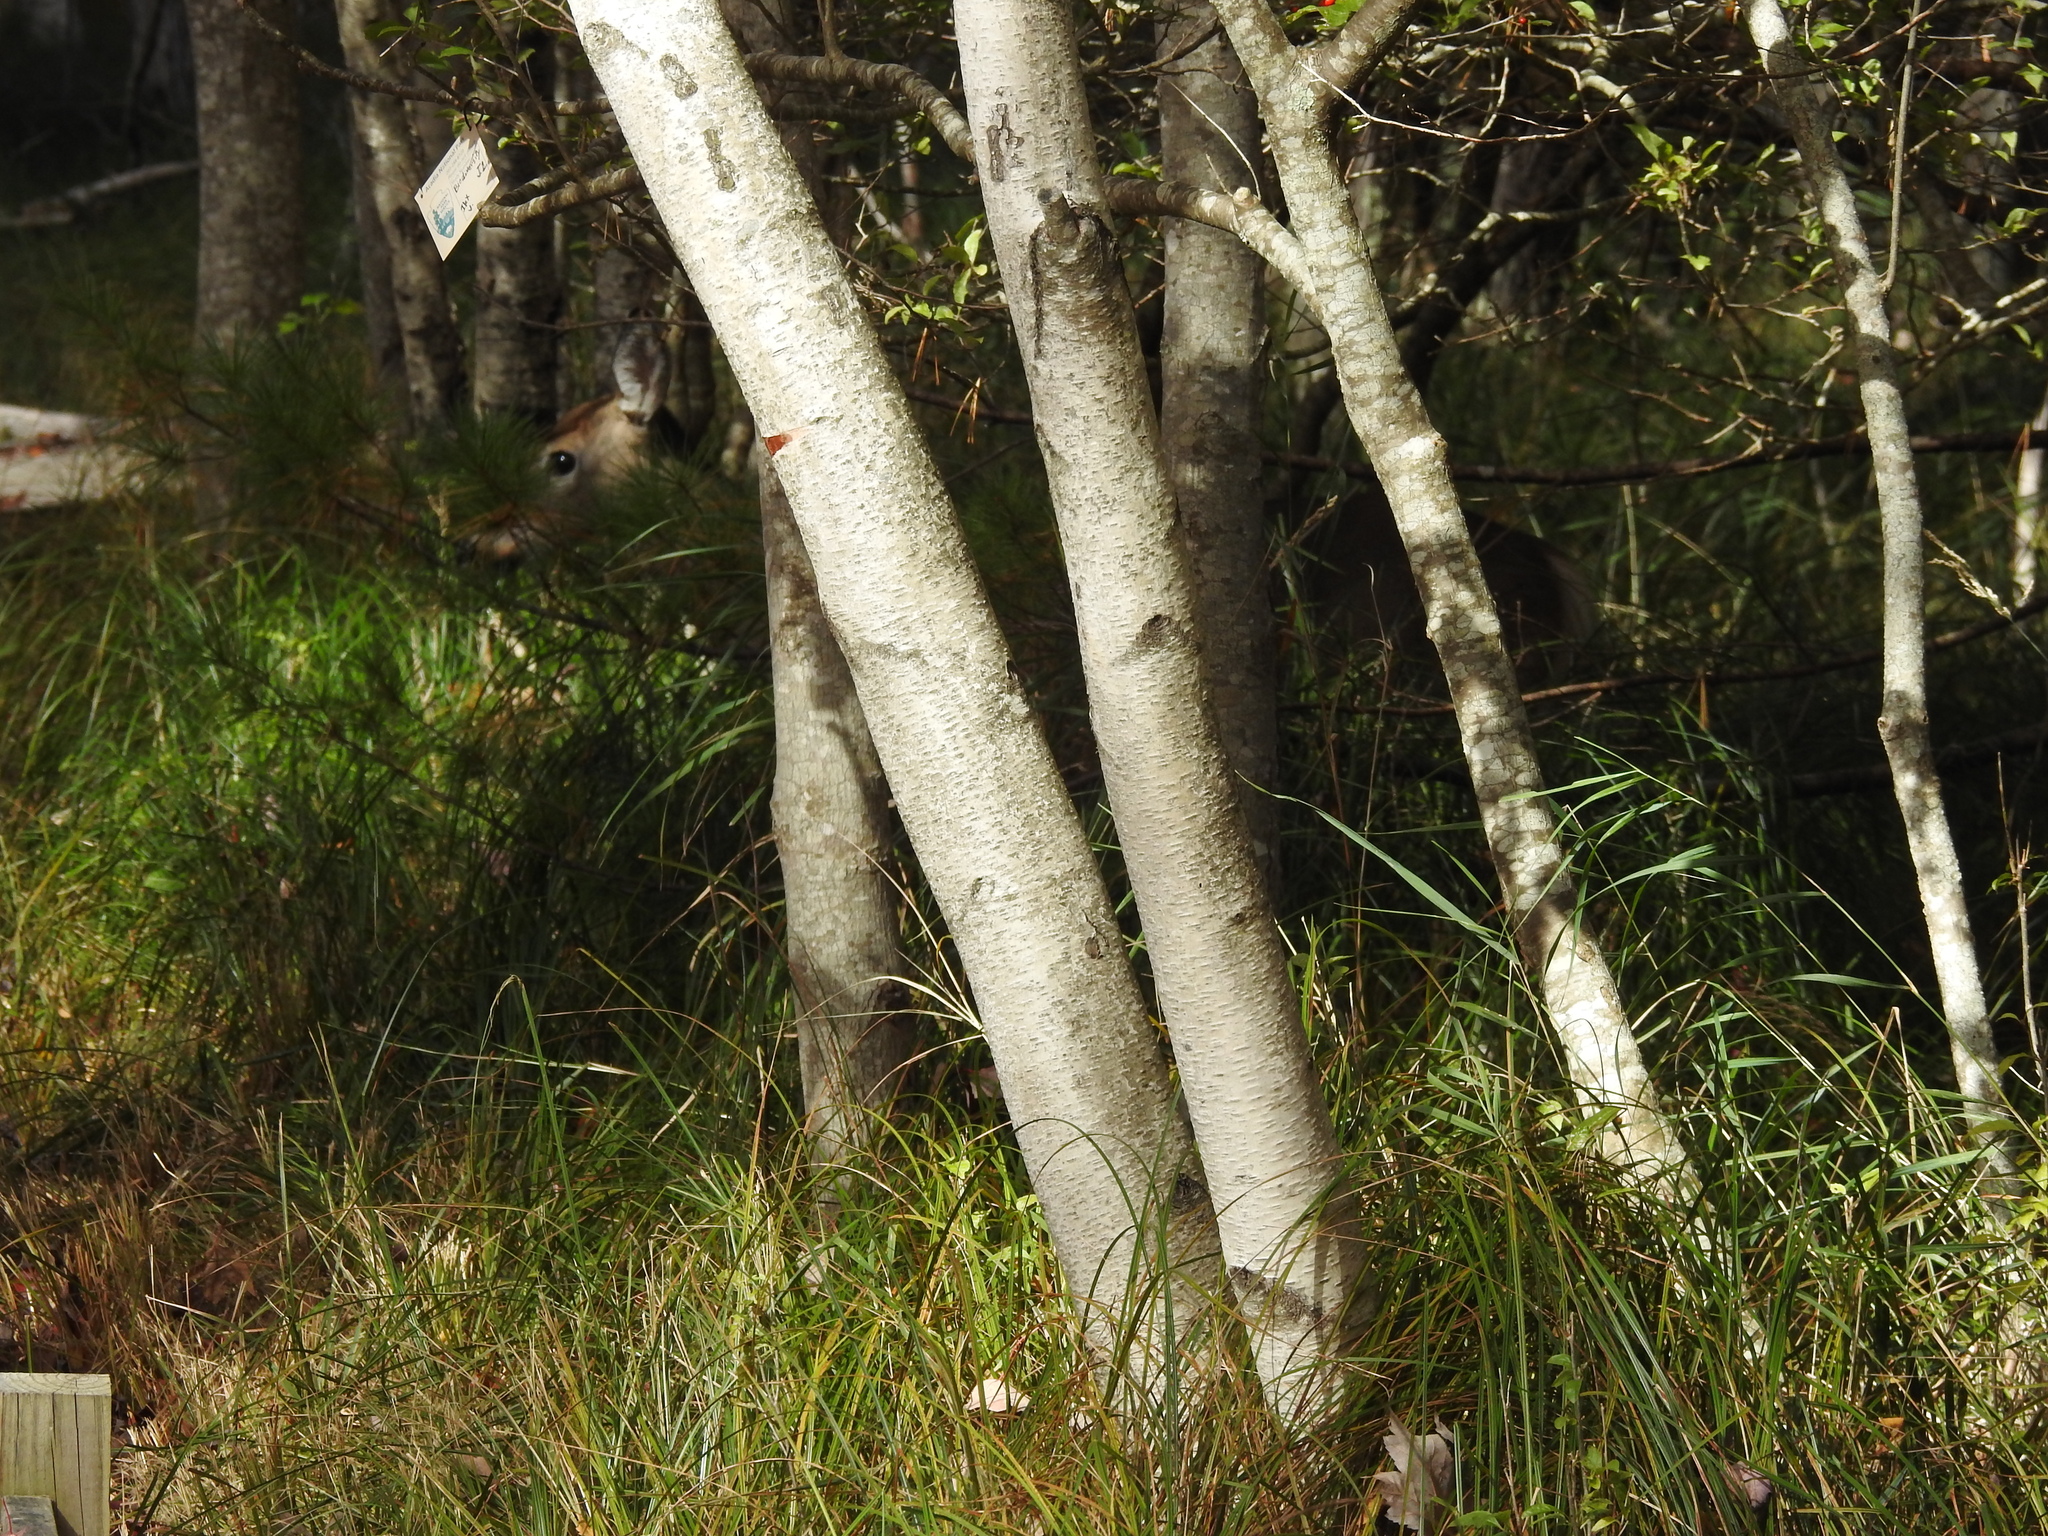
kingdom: Animalia
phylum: Chordata
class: Mammalia
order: Artiodactyla
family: Cervidae
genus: Odocoileus
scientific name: Odocoileus virginianus
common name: White-tailed deer
